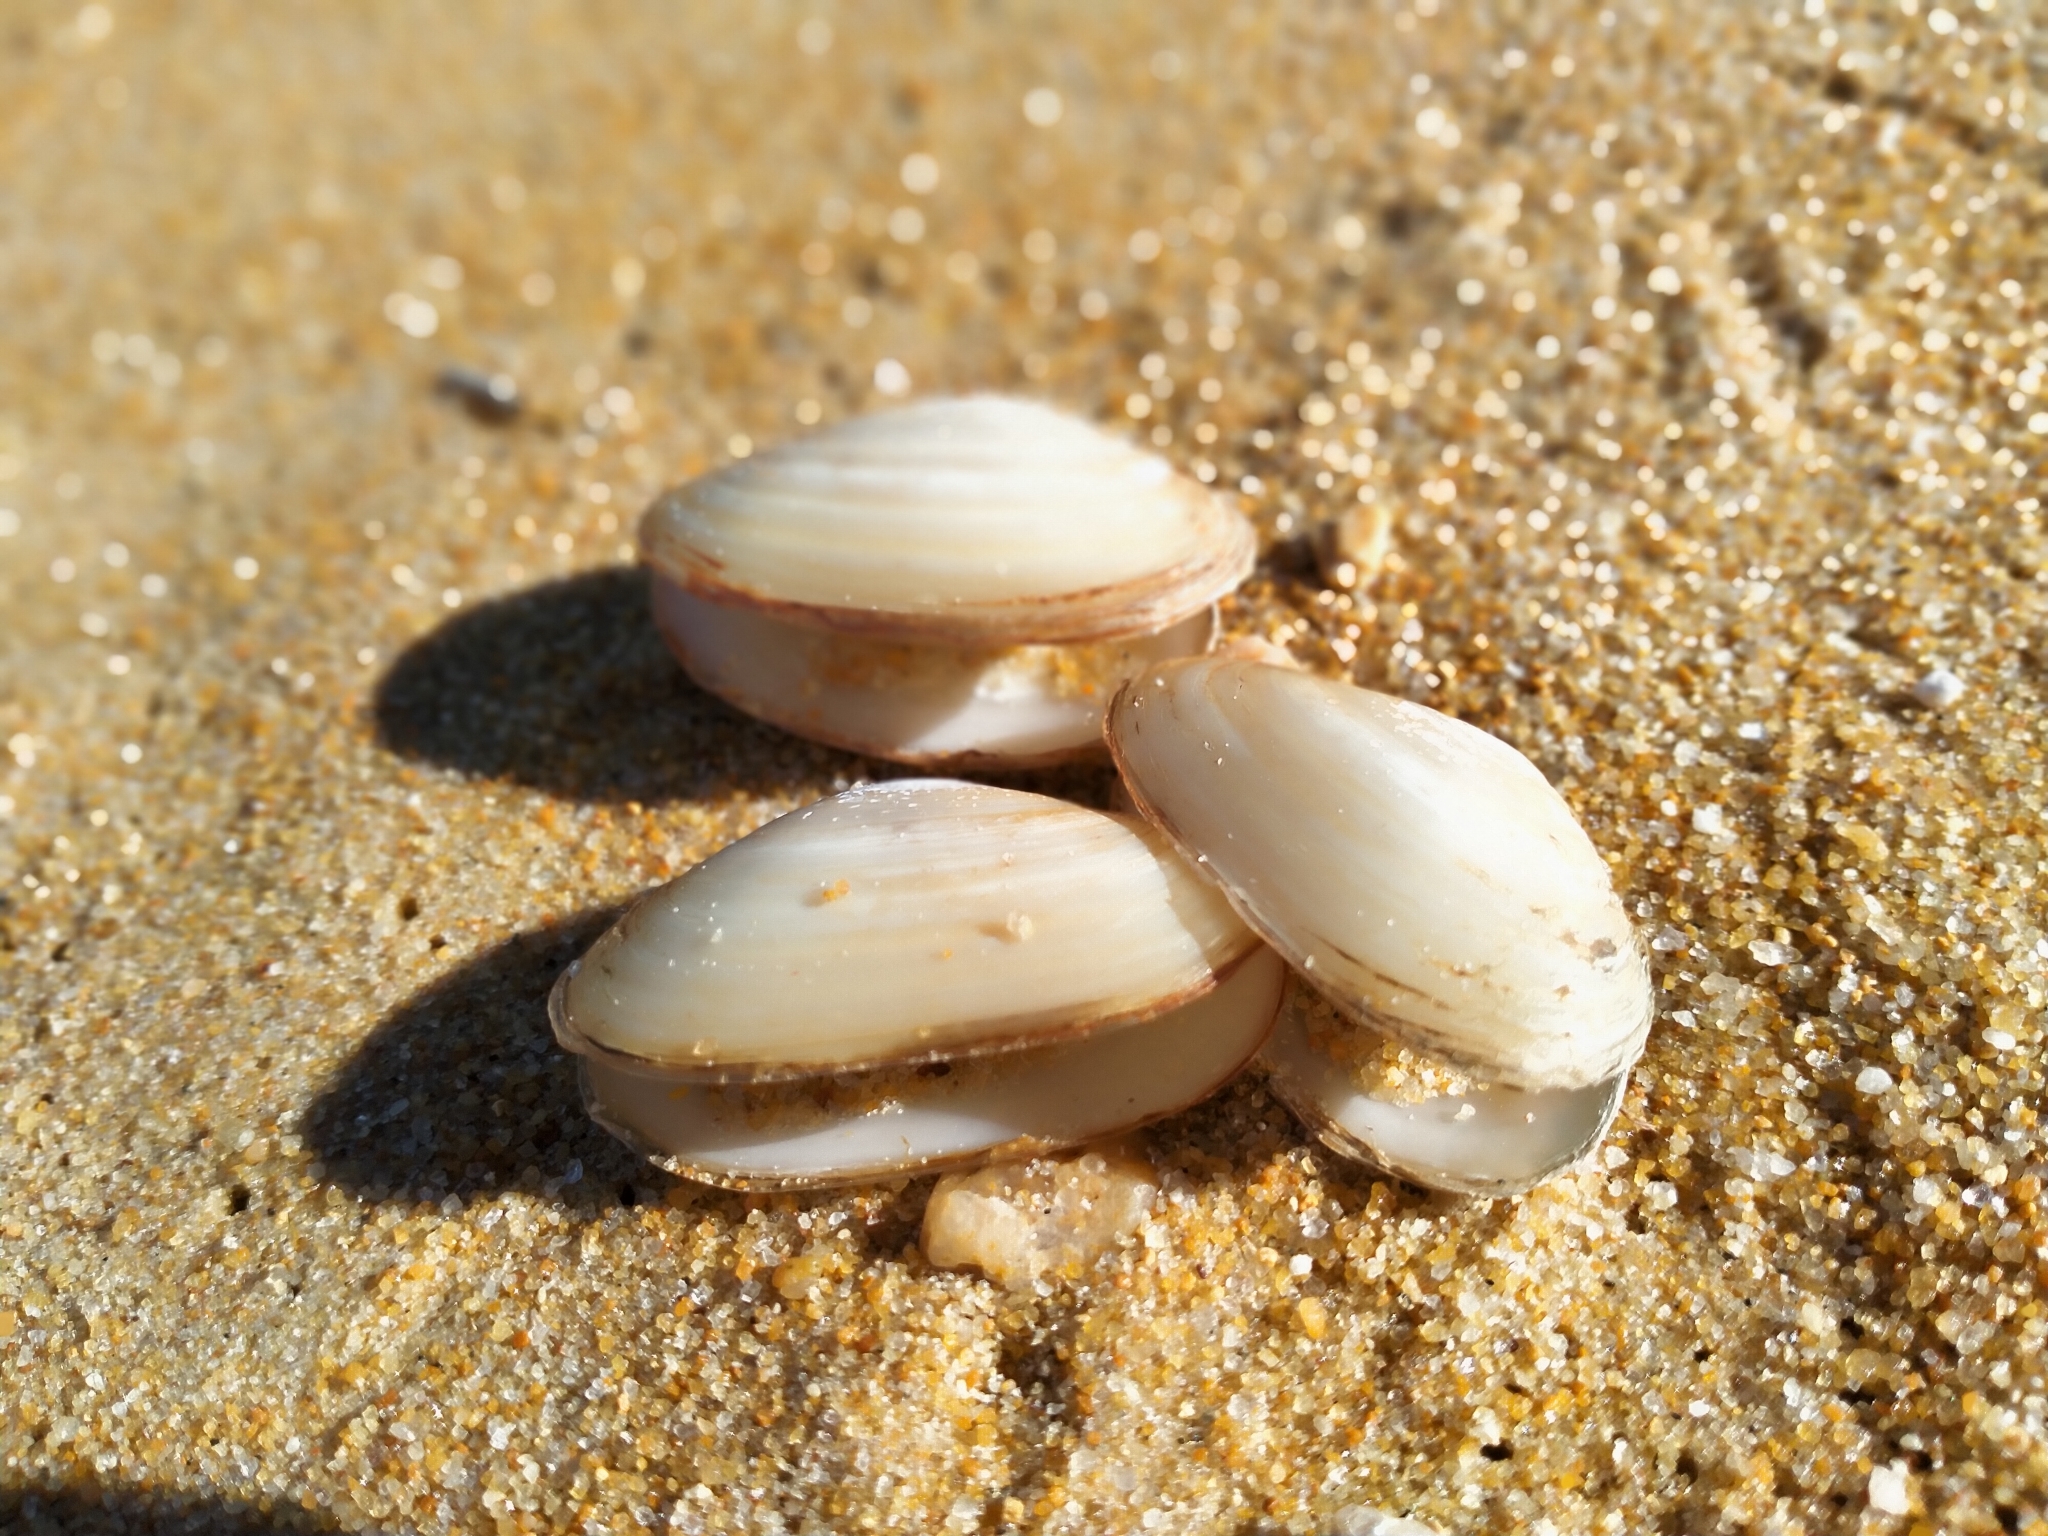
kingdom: Animalia
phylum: Mollusca
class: Bivalvia
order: Venerida
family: Mesodesmatidae
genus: Paphies
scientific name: Paphies australis
